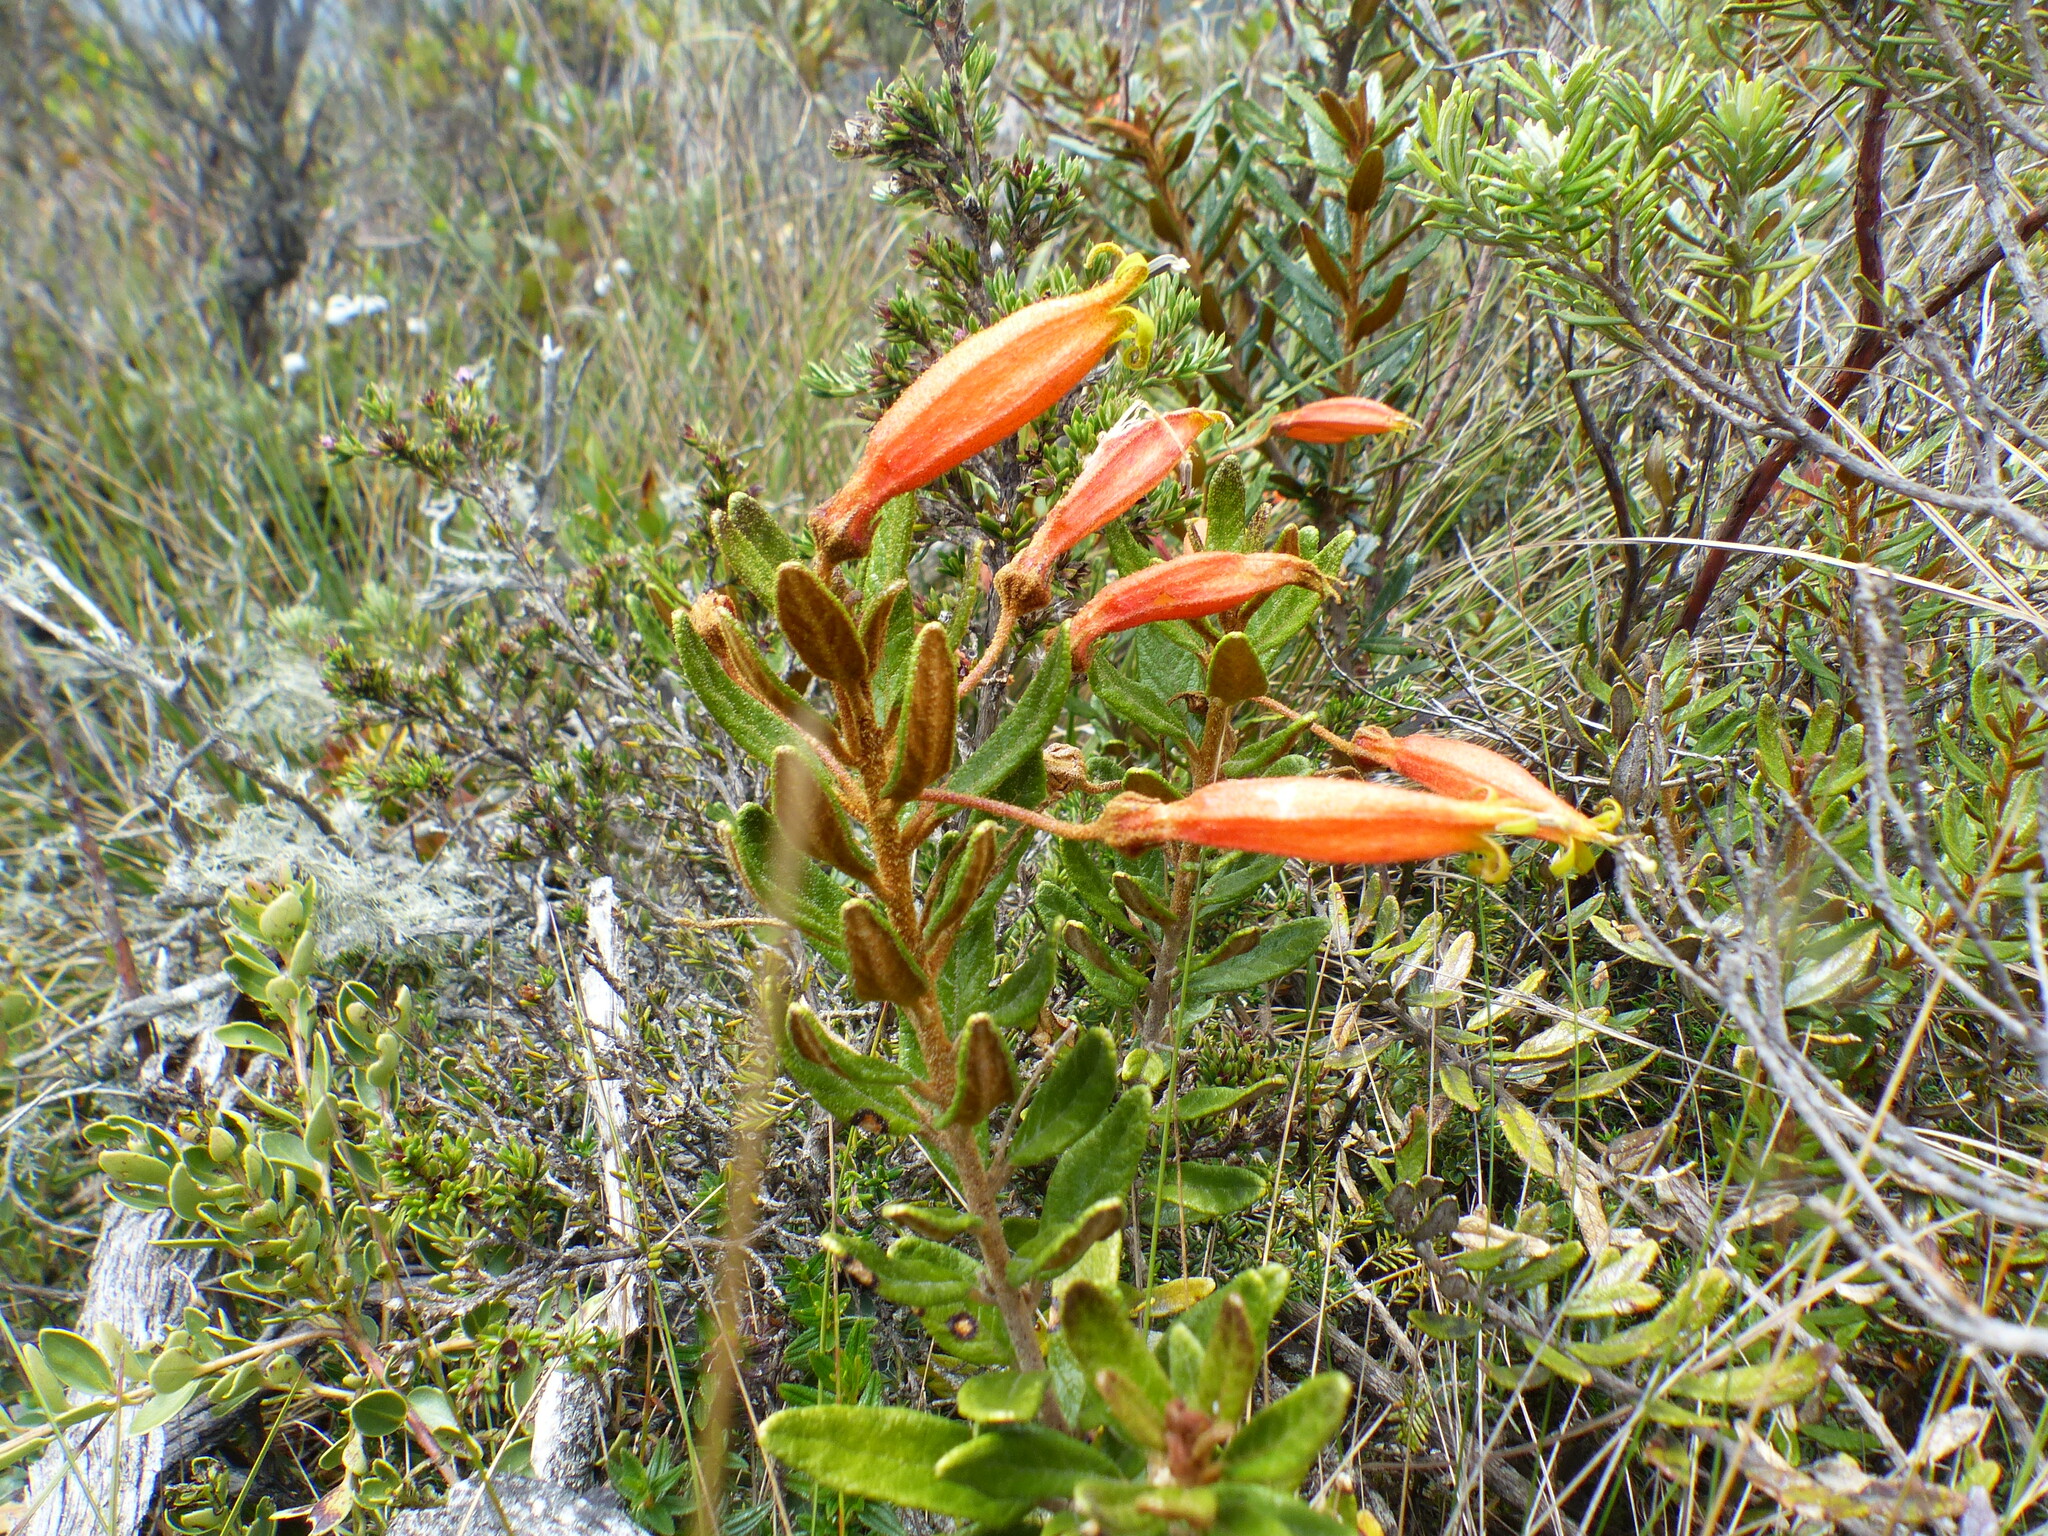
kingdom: Plantae
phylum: Tracheophyta
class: Magnoliopsida
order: Asterales
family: Campanulaceae
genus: Siphocampylus
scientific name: Siphocampylus columnae
